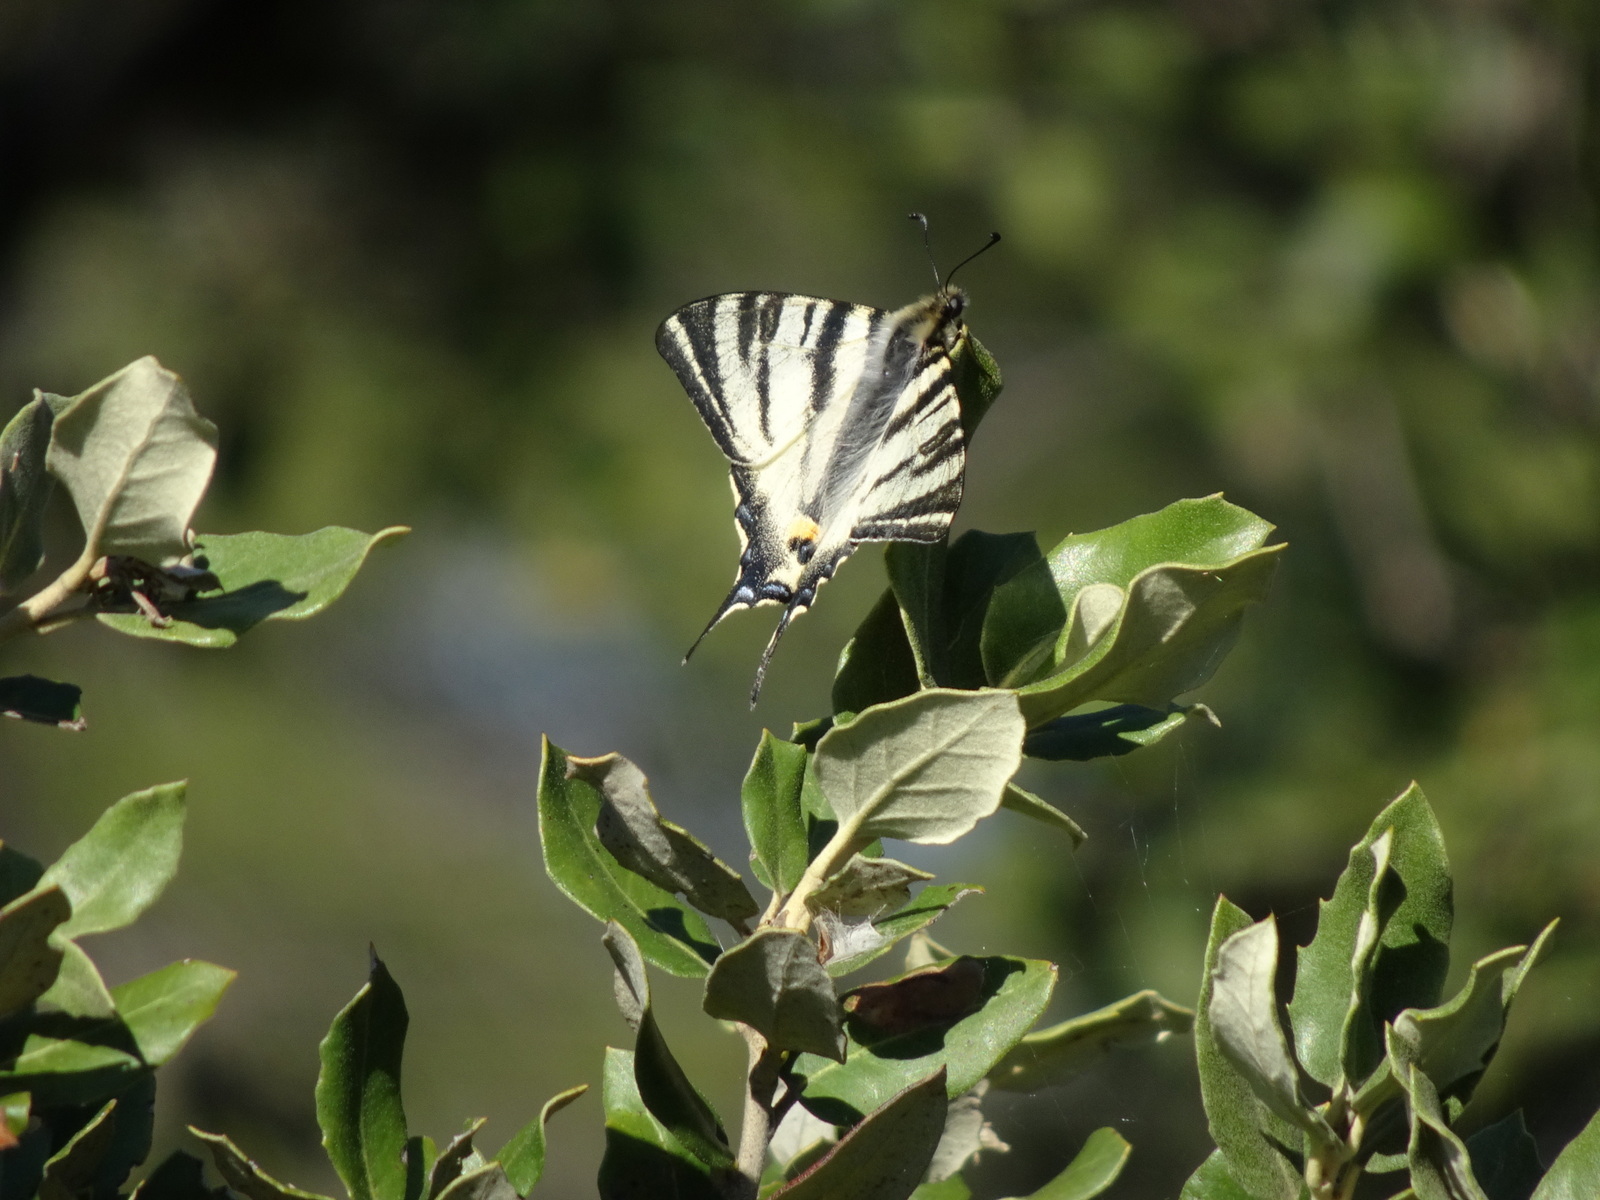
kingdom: Animalia
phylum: Arthropoda
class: Insecta
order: Lepidoptera
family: Papilionidae
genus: Iphiclides
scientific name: Iphiclides podalirius
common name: Scarce swallowtail
